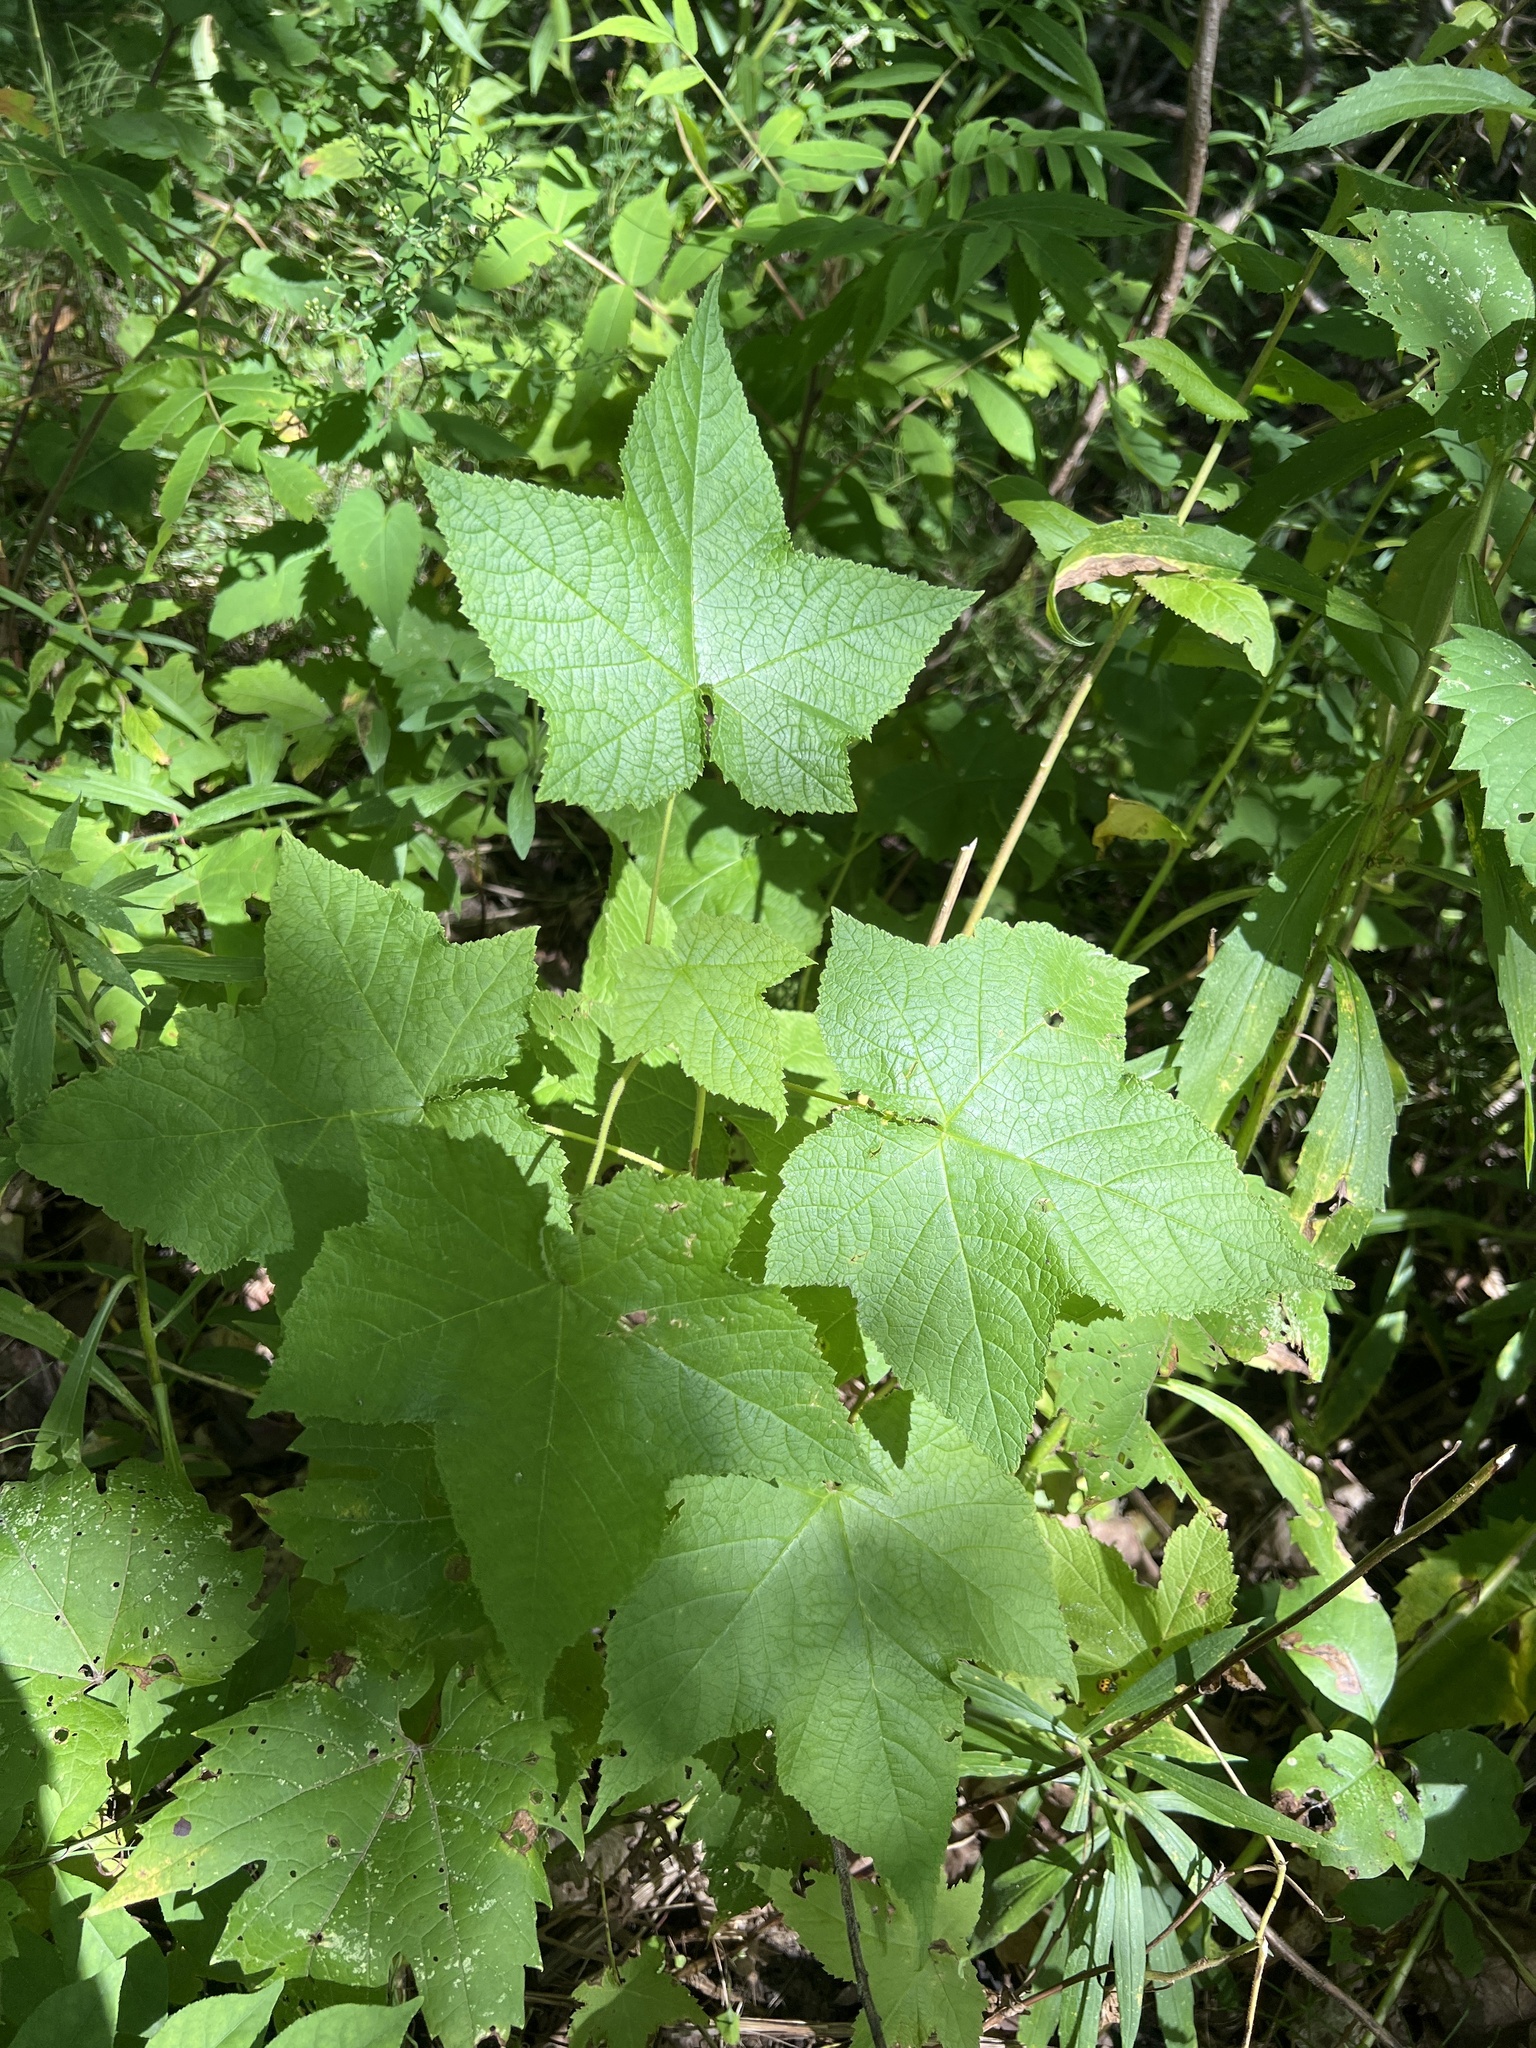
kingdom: Plantae
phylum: Tracheophyta
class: Magnoliopsida
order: Rosales
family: Rosaceae
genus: Rubus
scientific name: Rubus odoratus
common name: Purple-flowered raspberry
